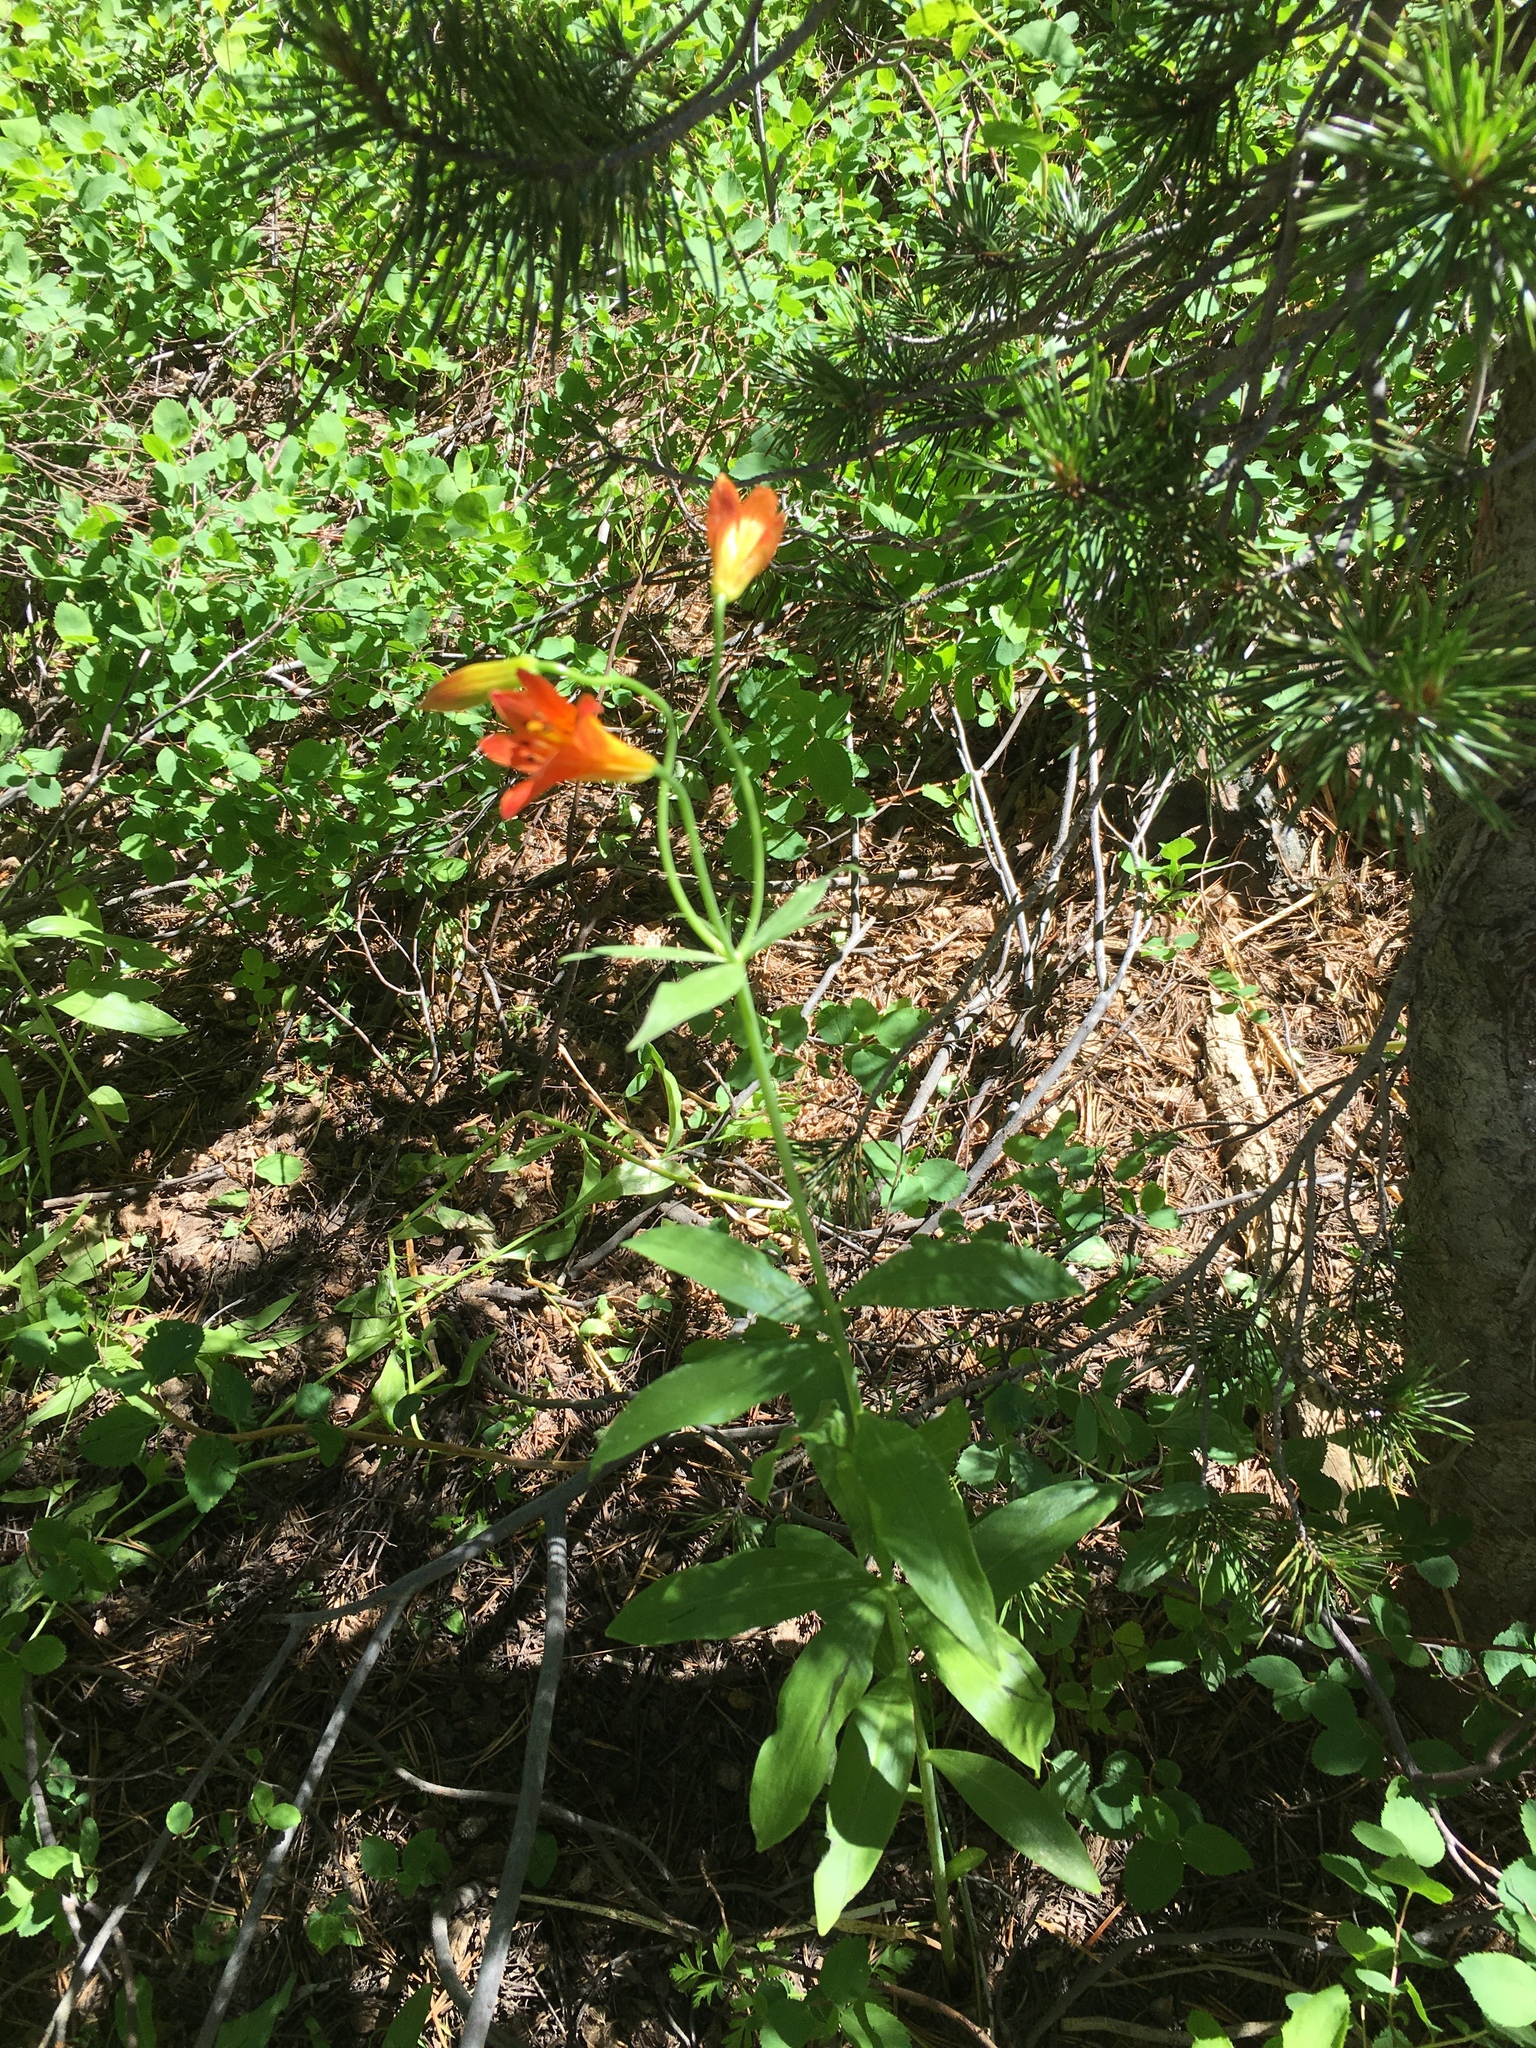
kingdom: Plantae
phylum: Tracheophyta
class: Liliopsida
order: Liliales
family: Liliaceae
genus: Lilium
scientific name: Lilium parvum
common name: Alpine lily
